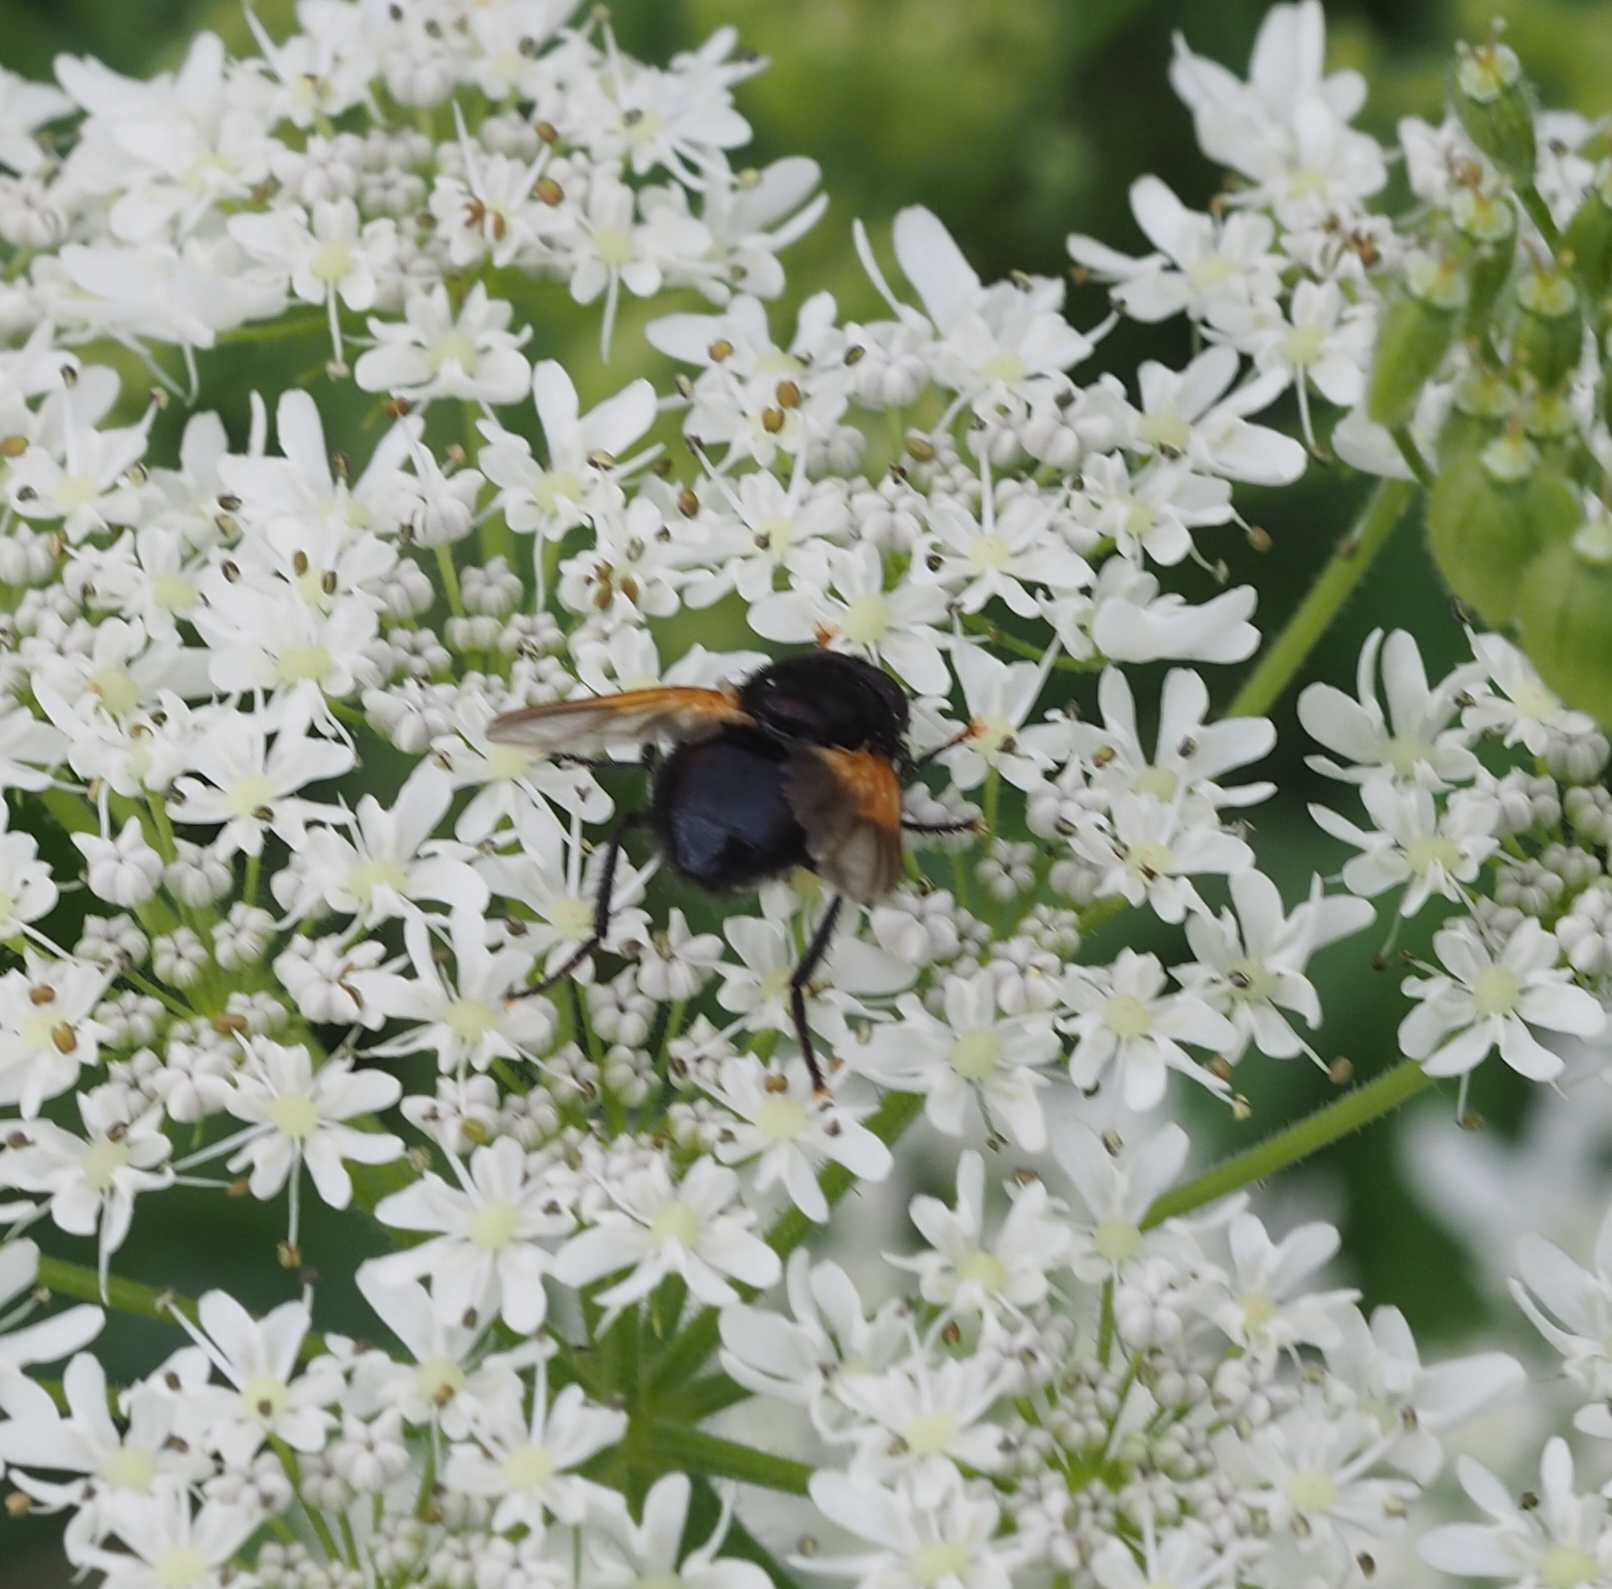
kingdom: Animalia
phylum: Arthropoda
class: Insecta
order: Diptera
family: Muscidae
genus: Mesembrina
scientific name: Mesembrina meridiana
